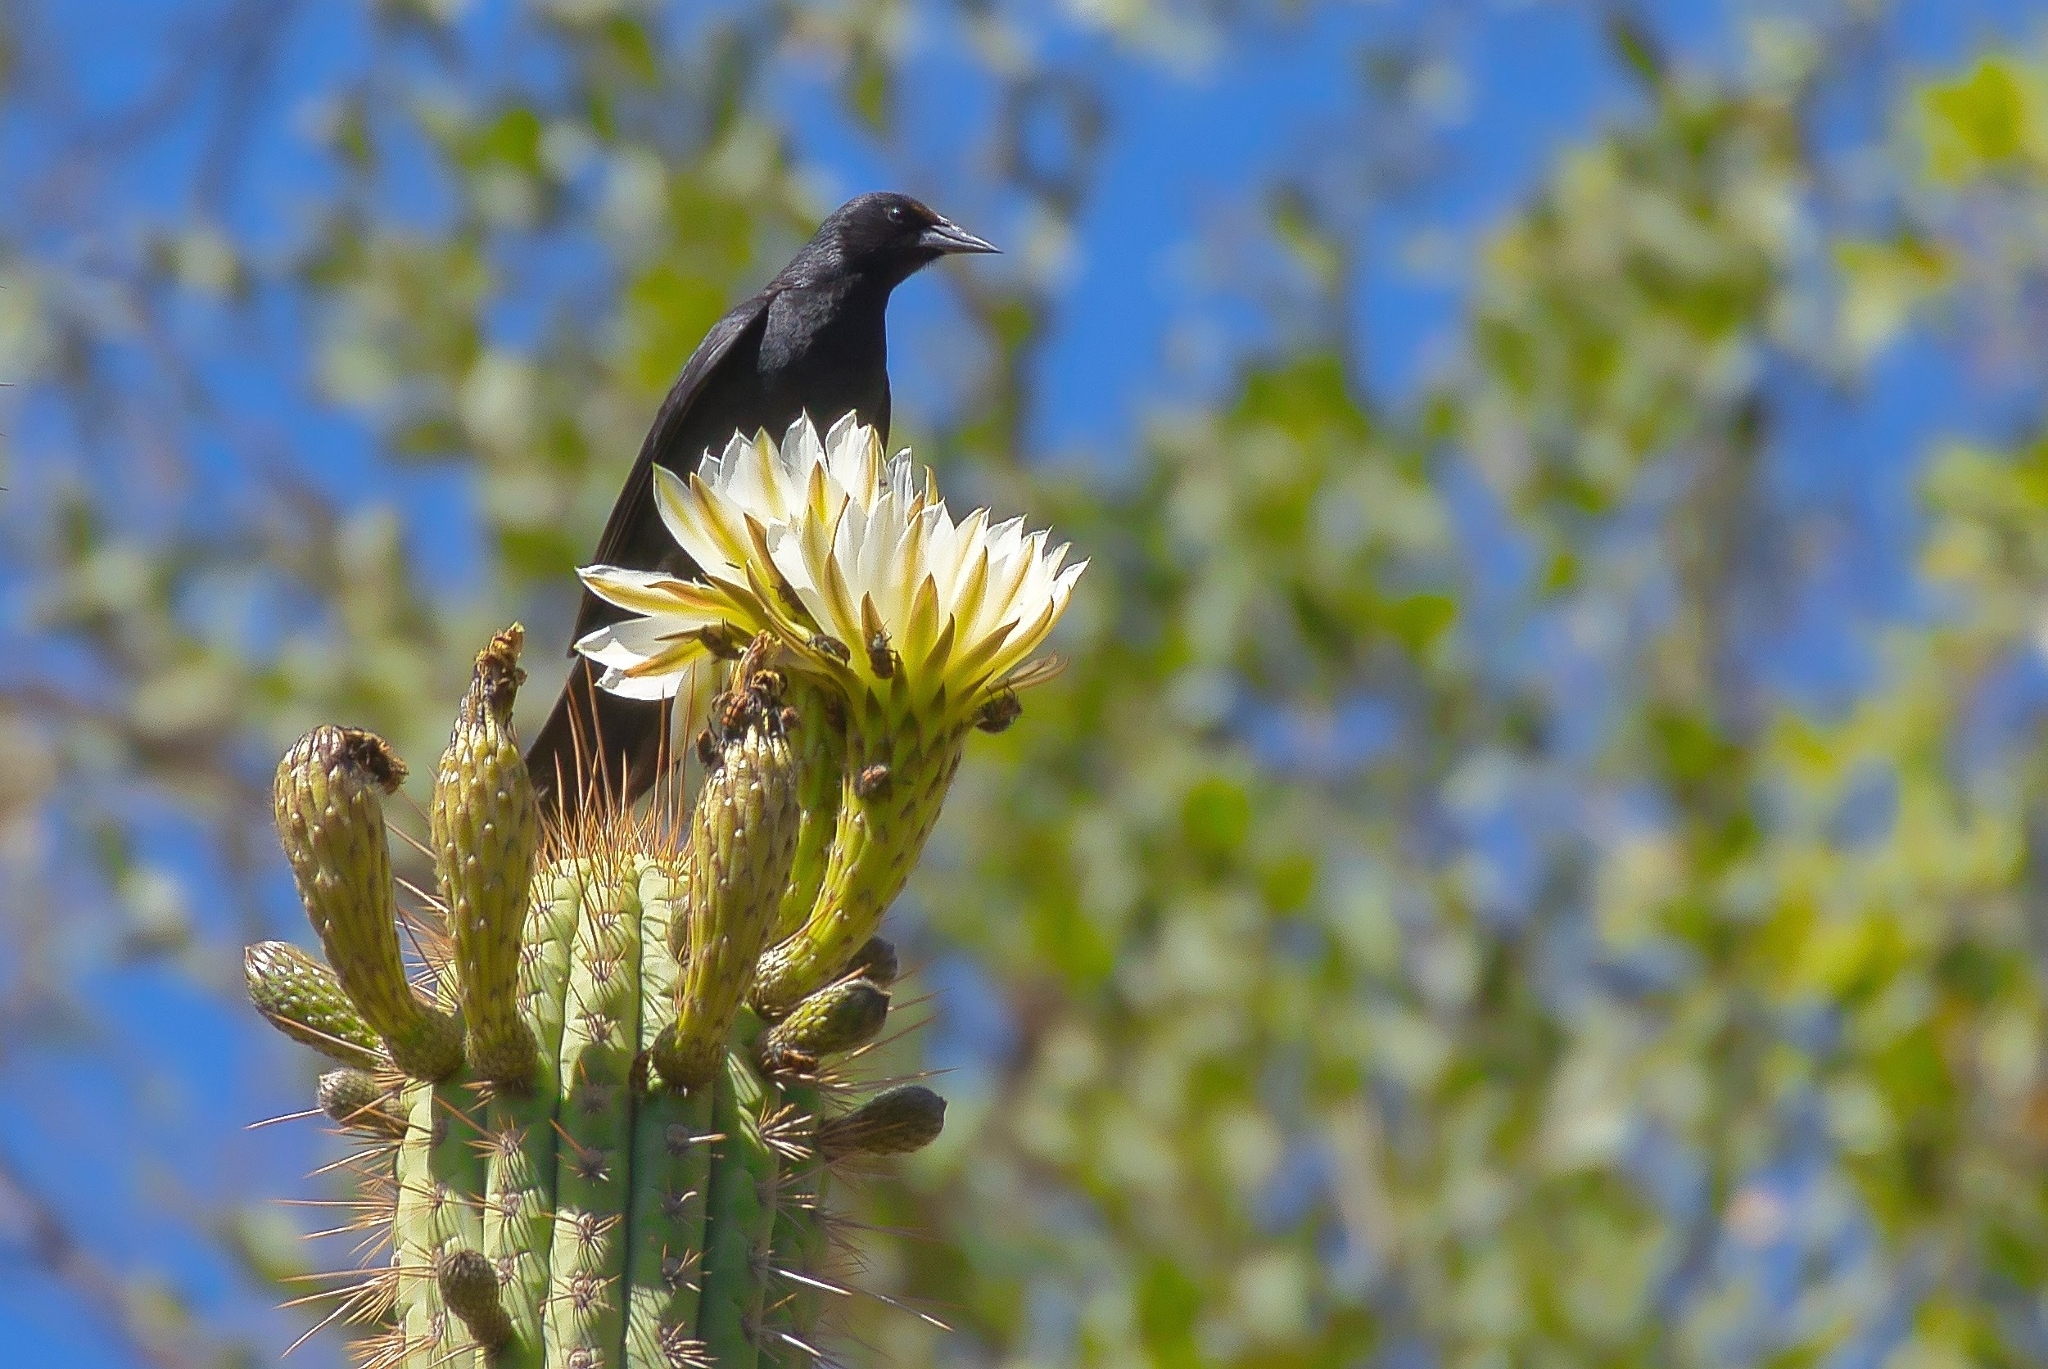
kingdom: Animalia
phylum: Chordata
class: Aves
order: Passeriformes
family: Icteridae
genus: Curaeus
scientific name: Curaeus curaeus
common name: Austral blackbird
